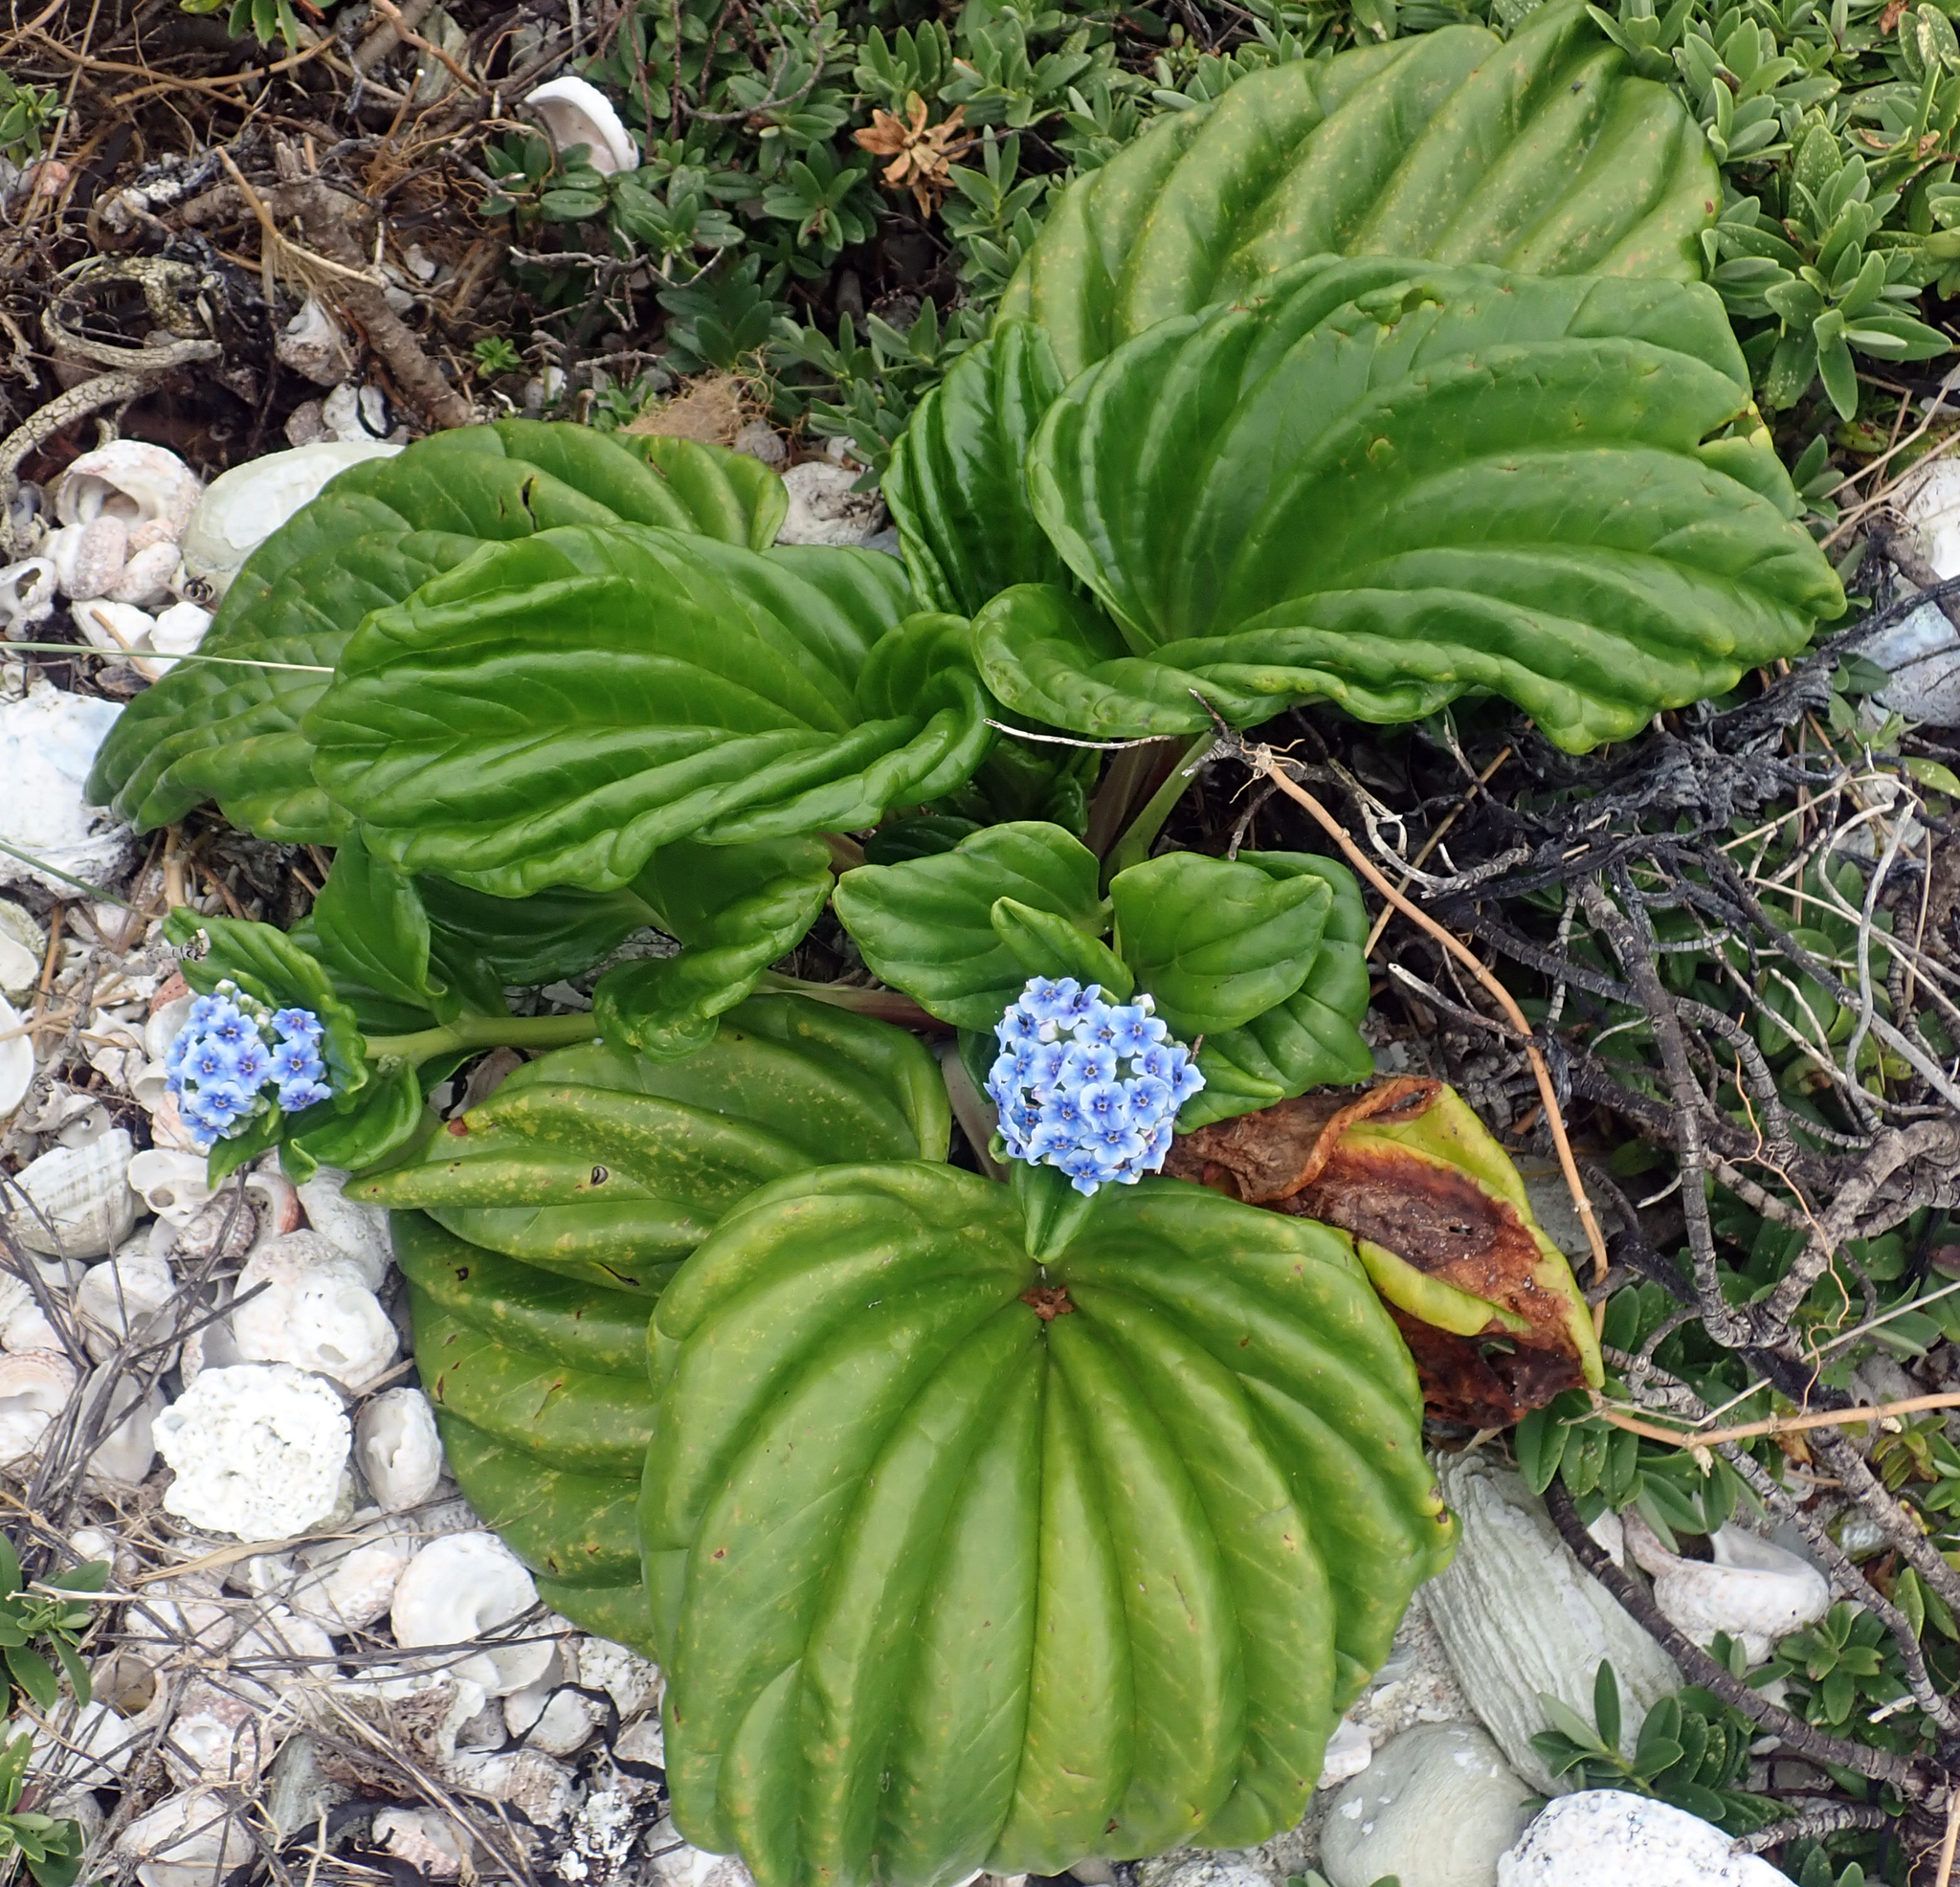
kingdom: Plantae
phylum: Tracheophyta
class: Magnoliopsida
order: Boraginales
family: Boraginaceae
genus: Myosotidium
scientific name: Myosotidium hortensia
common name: Giant forget-me-not
